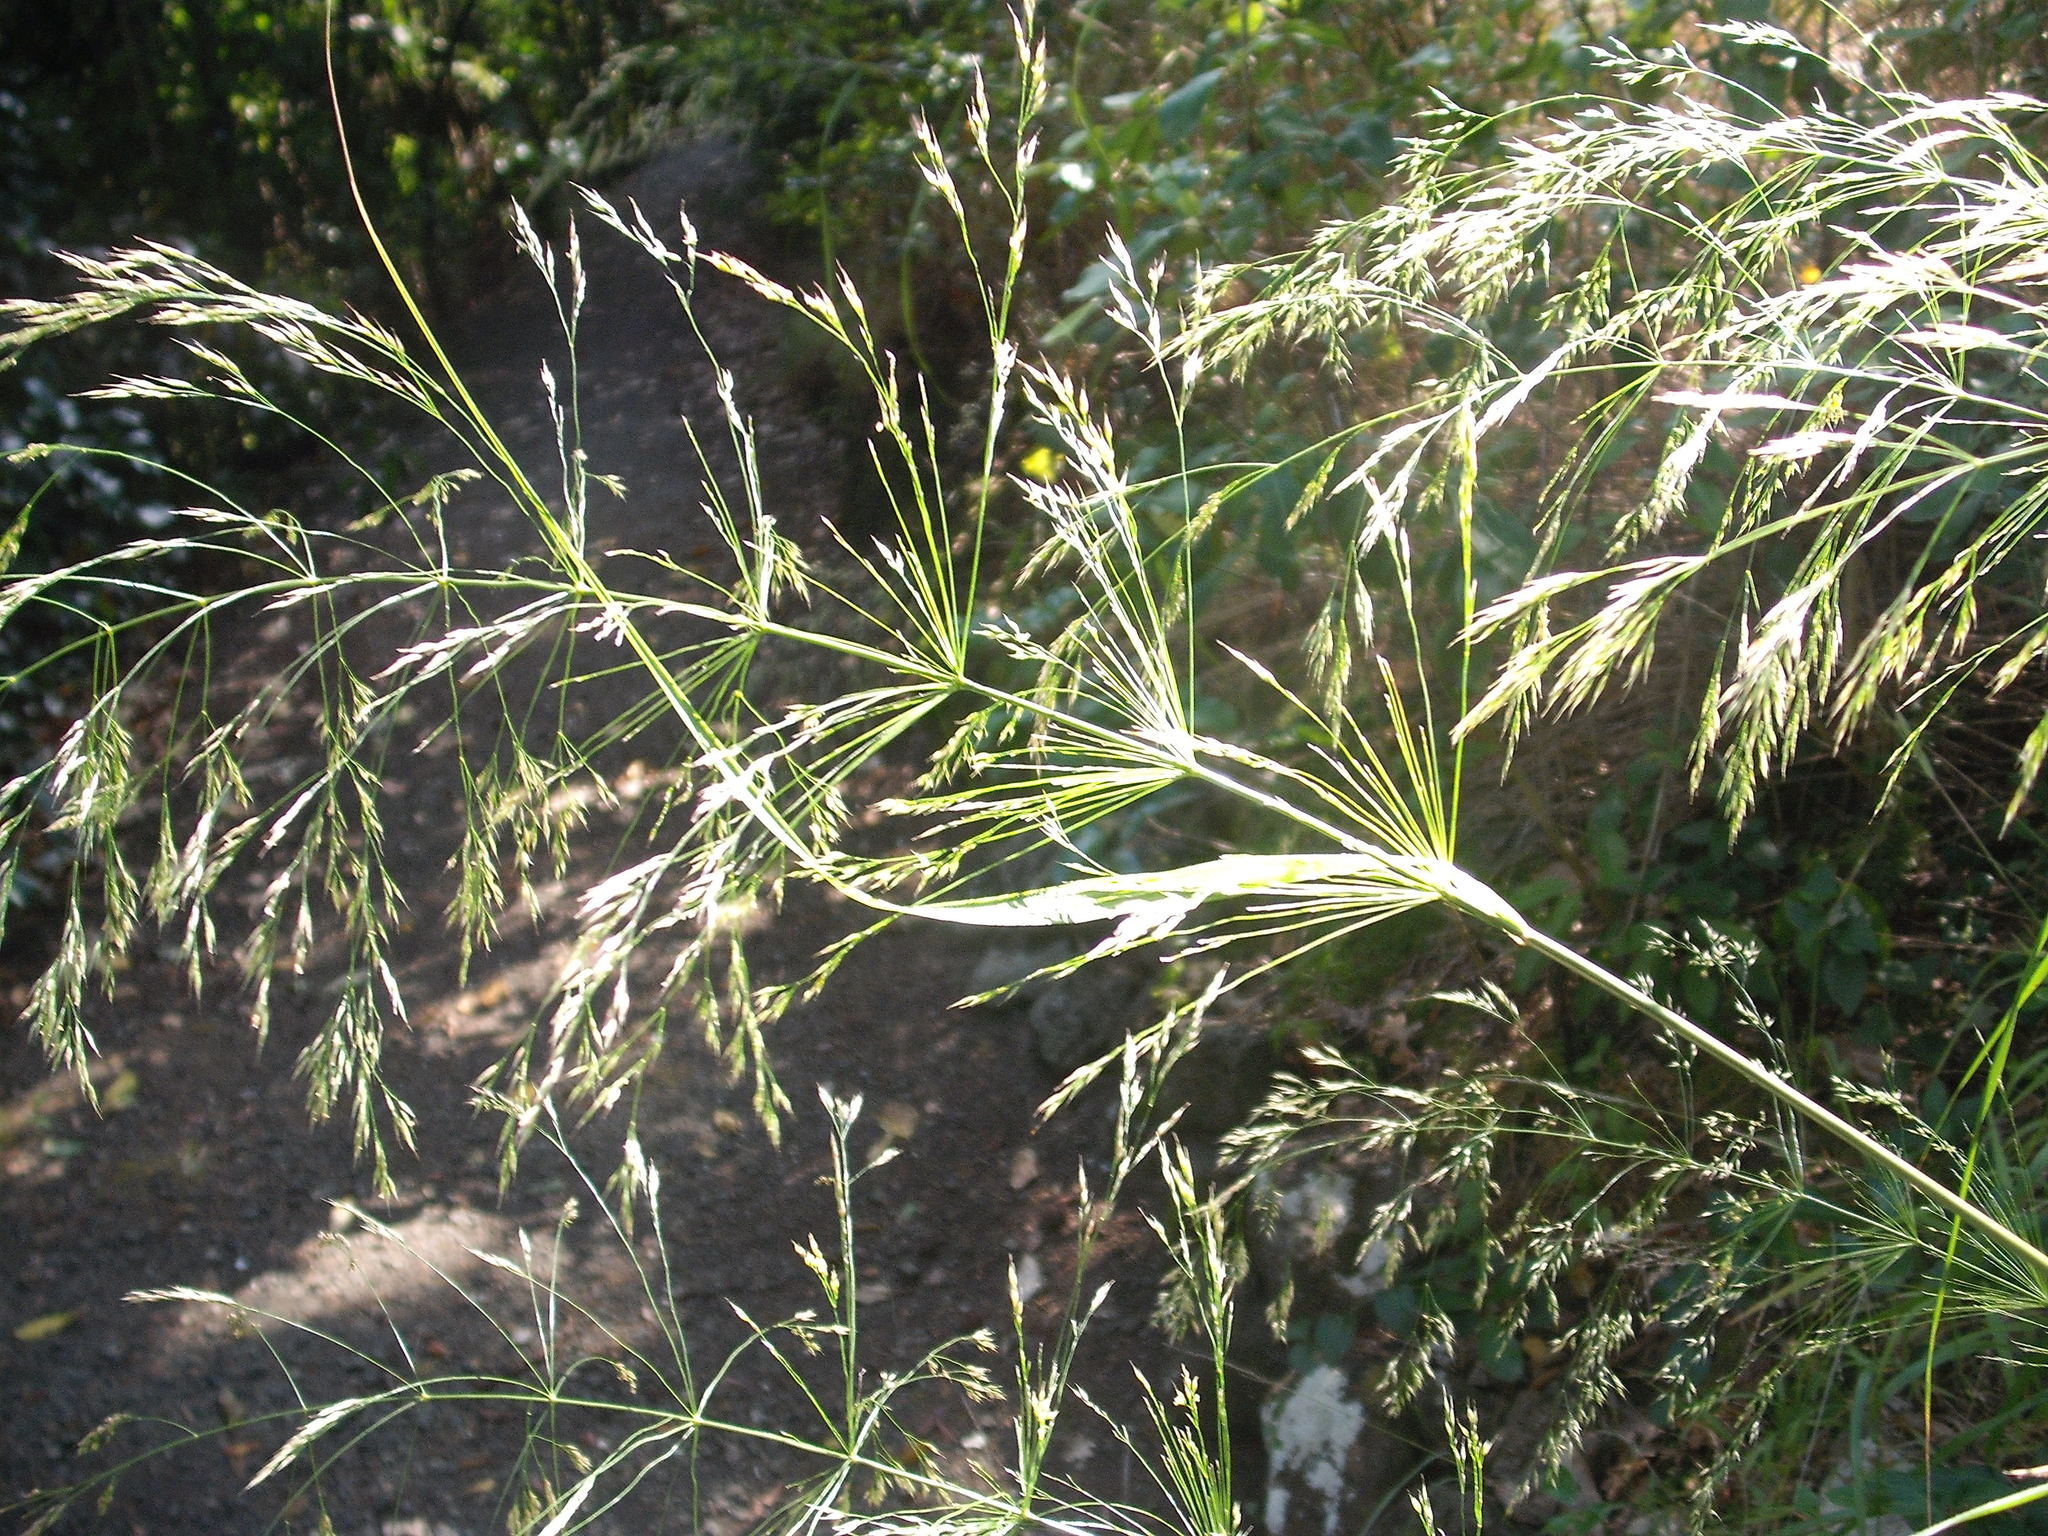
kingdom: Plantae
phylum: Tracheophyta
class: Liliopsida
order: Poales
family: Poaceae
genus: Oloptum
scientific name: Oloptum thomasii
